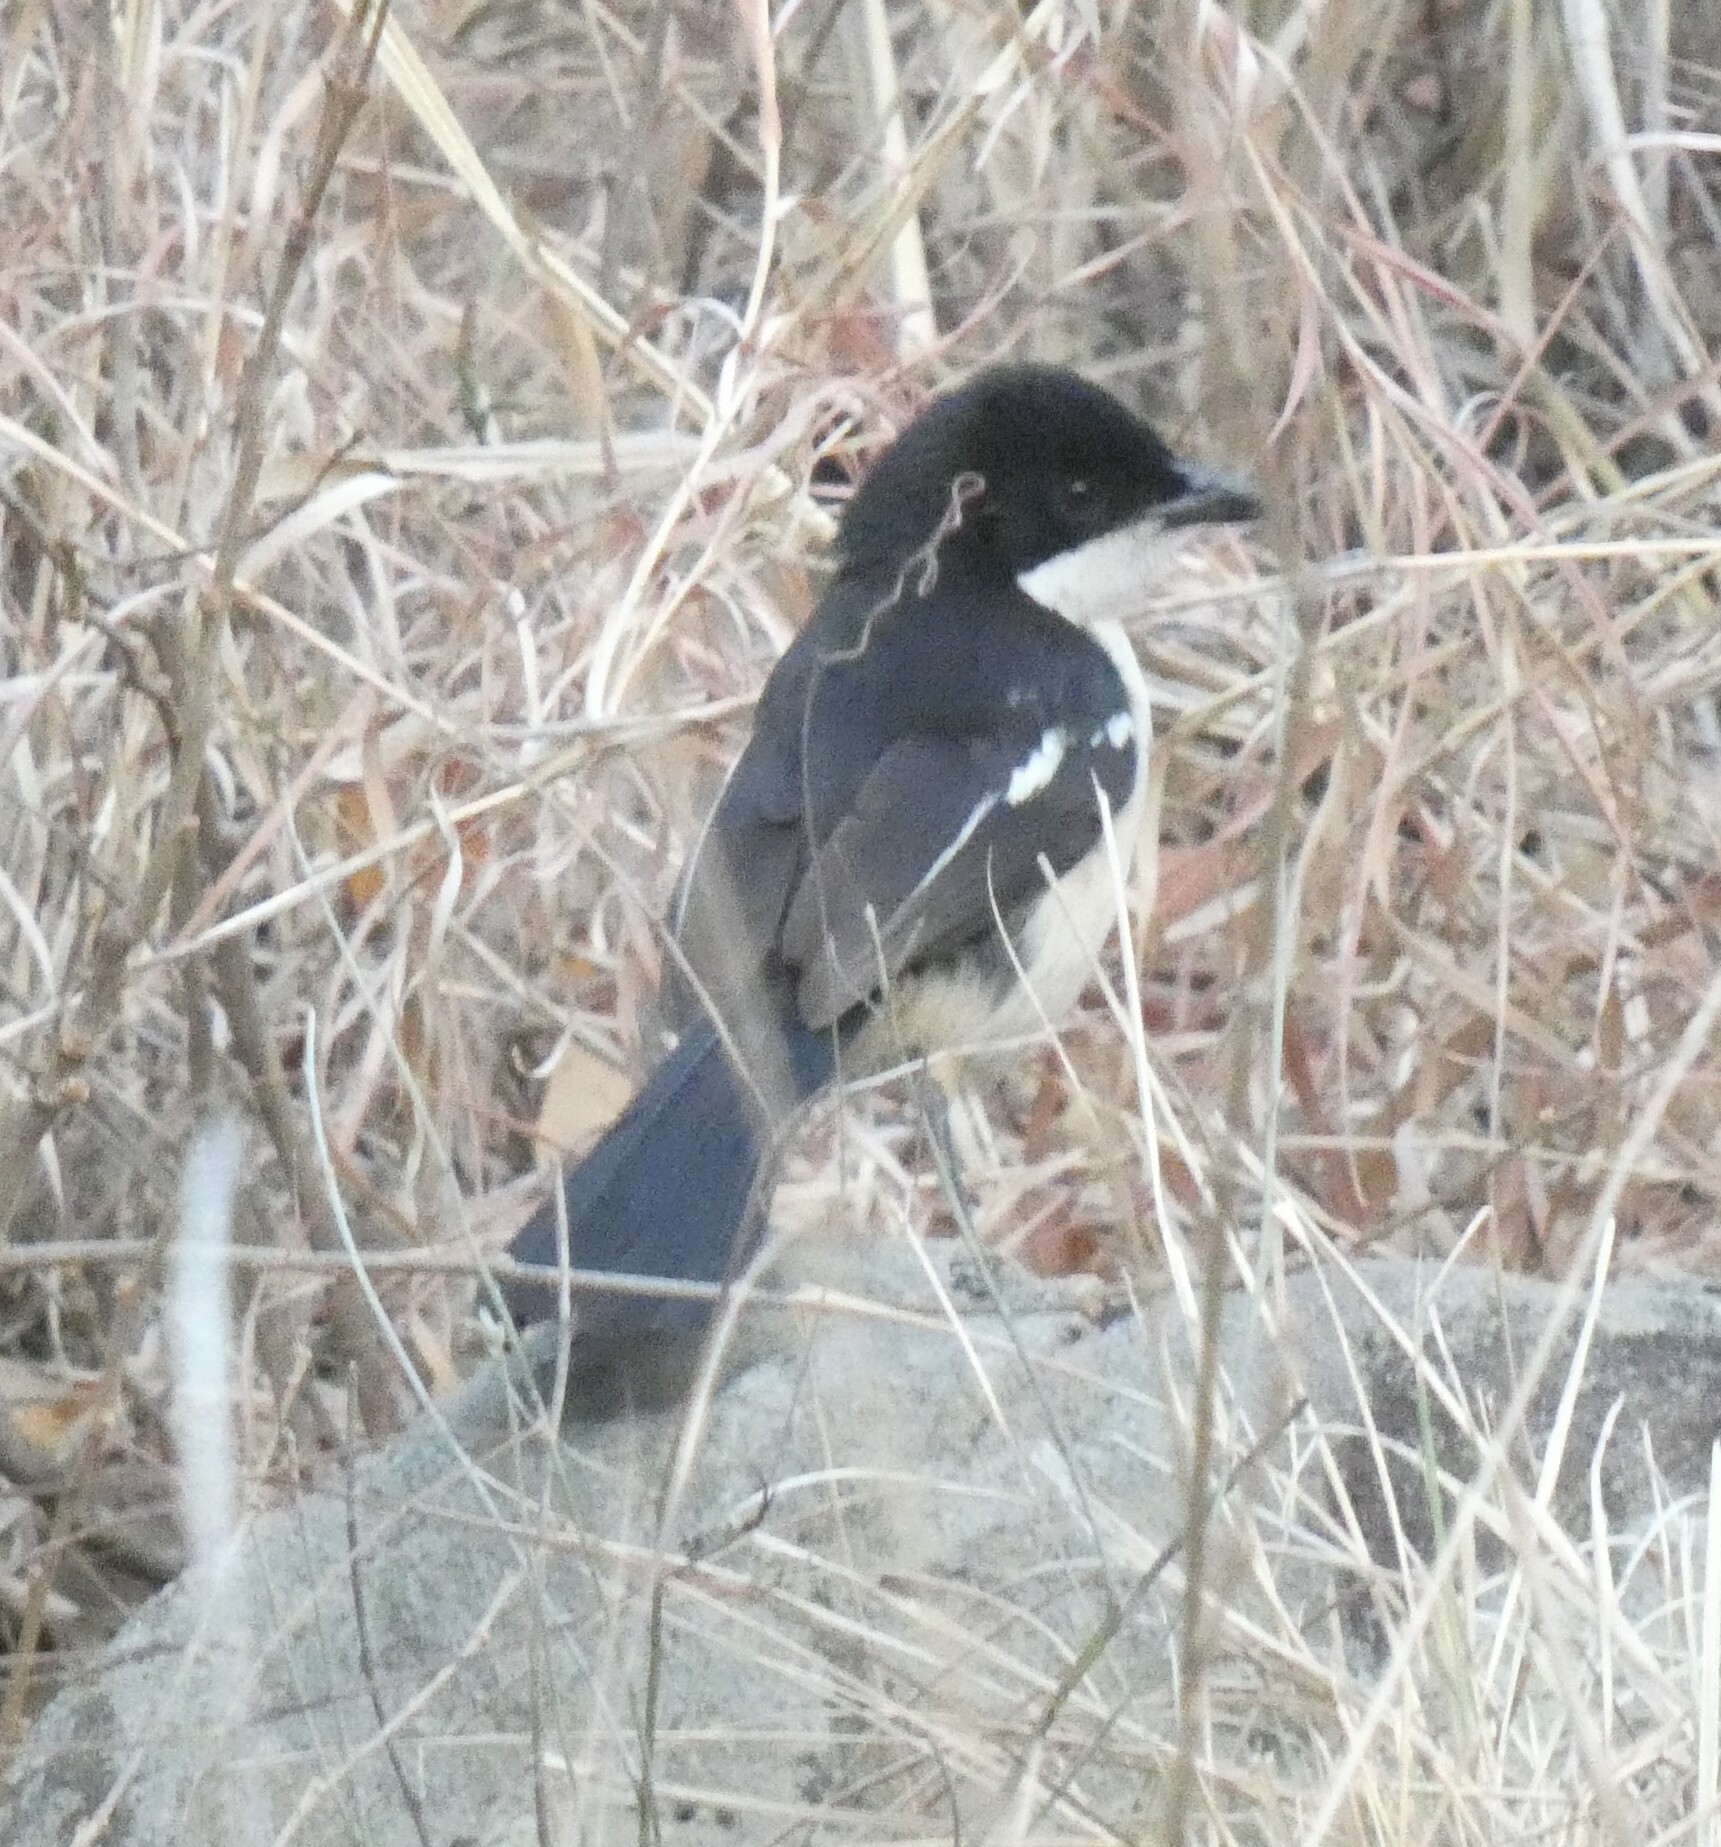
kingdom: Animalia
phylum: Chordata
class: Aves
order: Passeriformes
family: Malaconotidae
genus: Laniarius
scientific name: Laniarius major
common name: Tropical boubou
